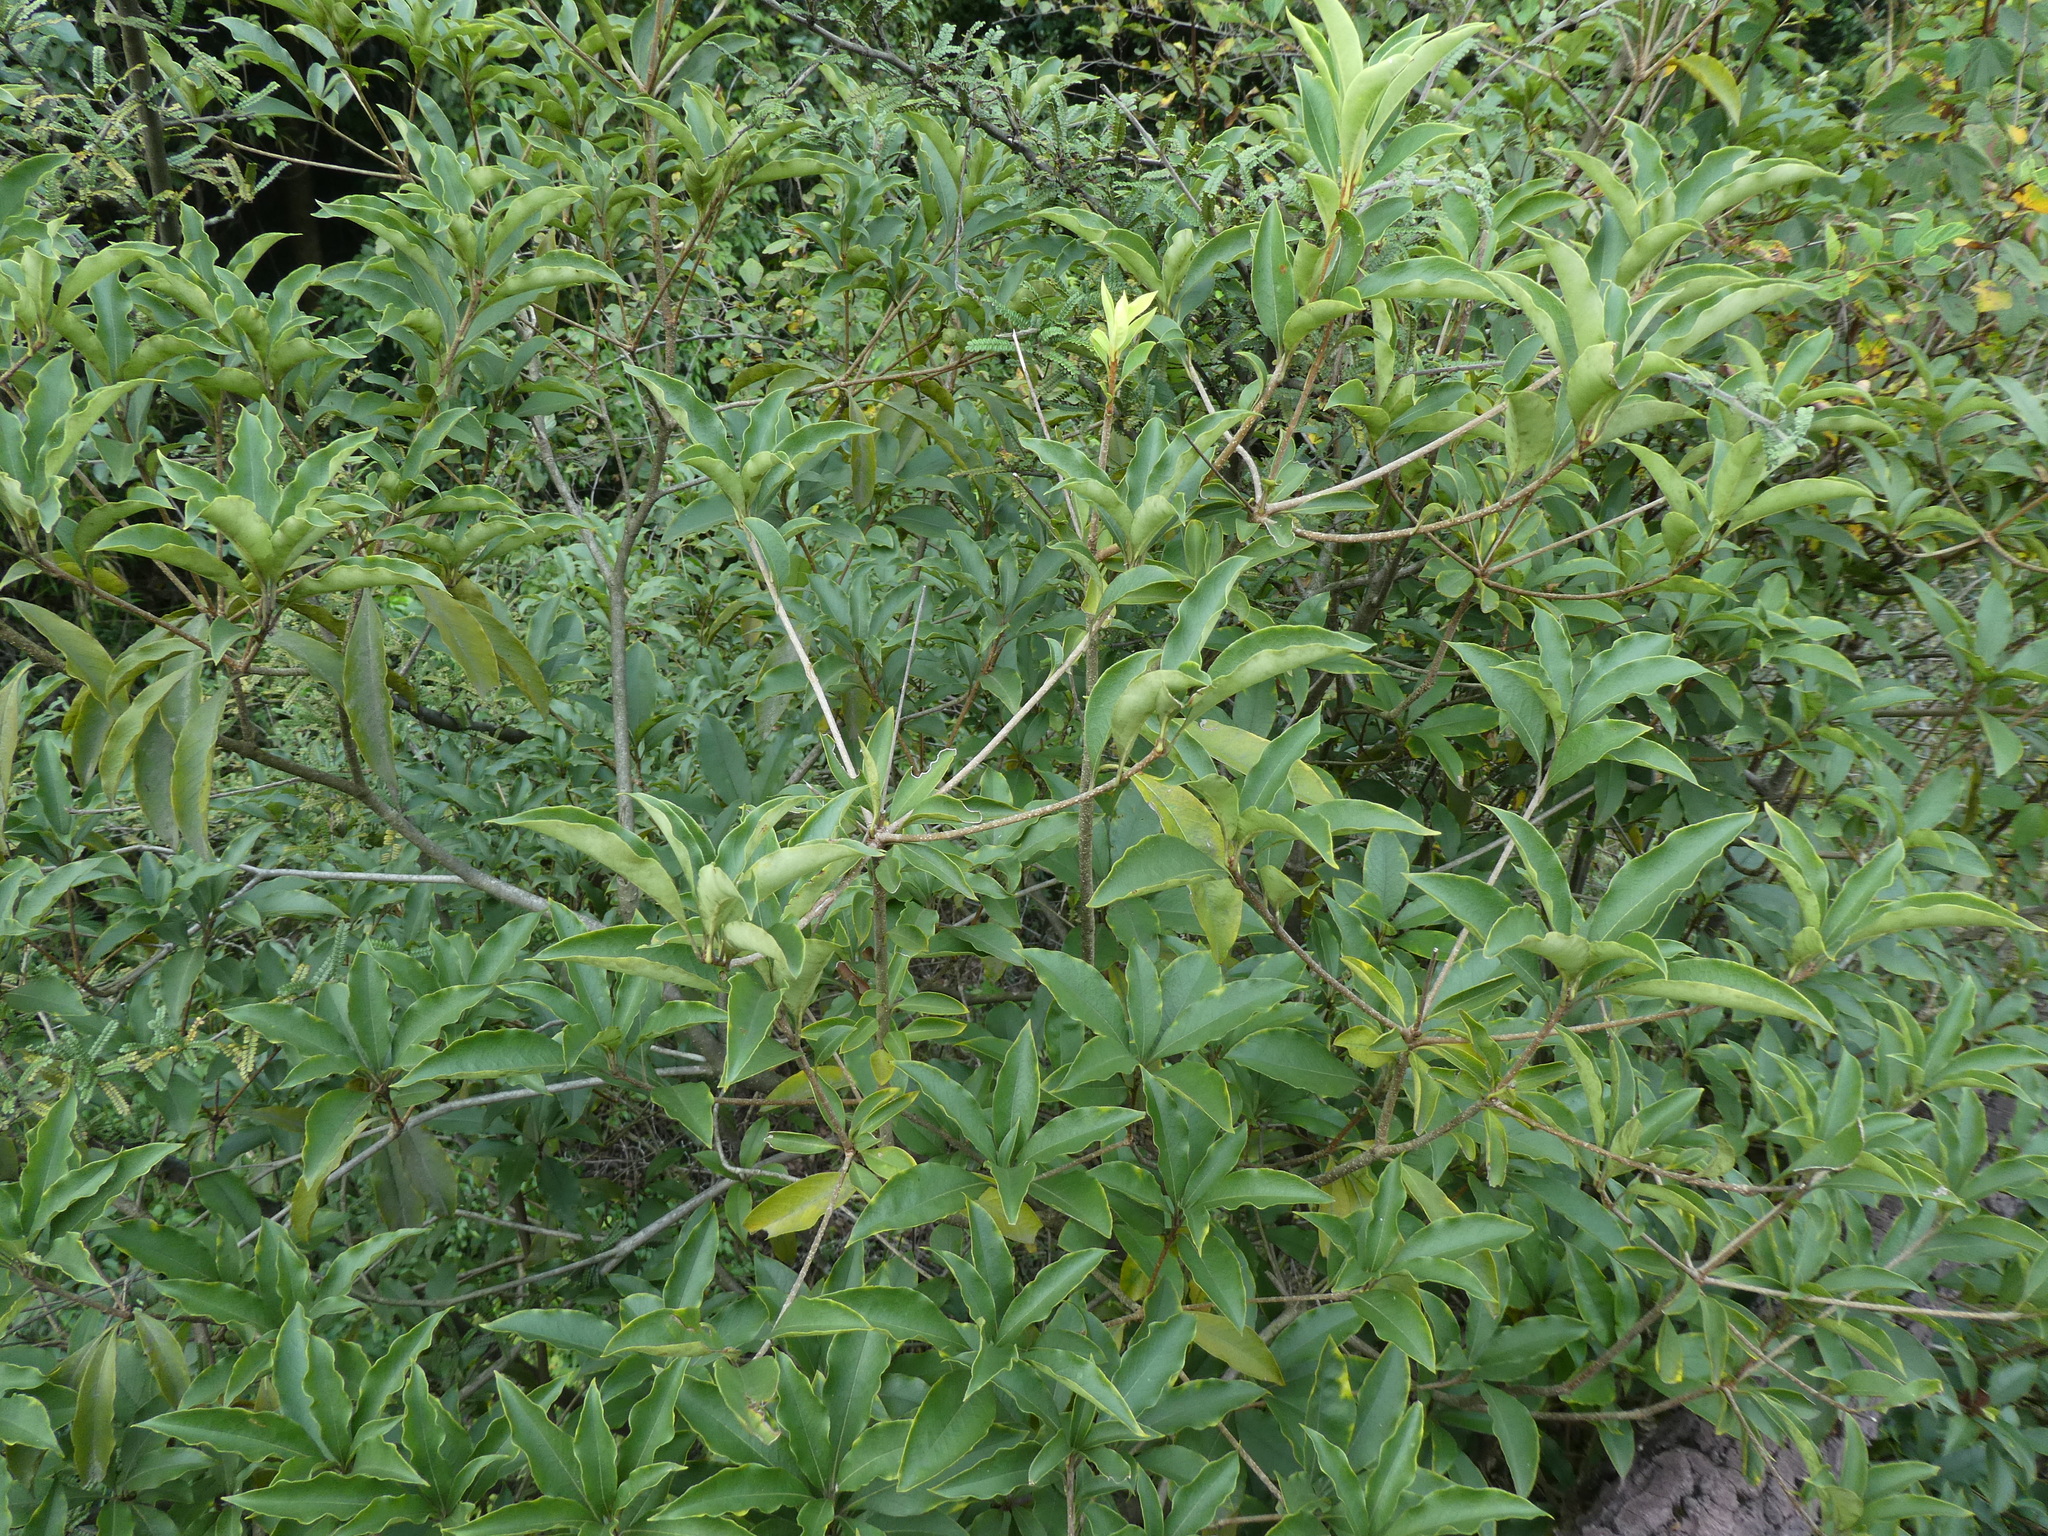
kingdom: Plantae
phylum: Tracheophyta
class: Magnoliopsida
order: Apiales
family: Pittosporaceae
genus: Pittosporum
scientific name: Pittosporum fulvipilosum
